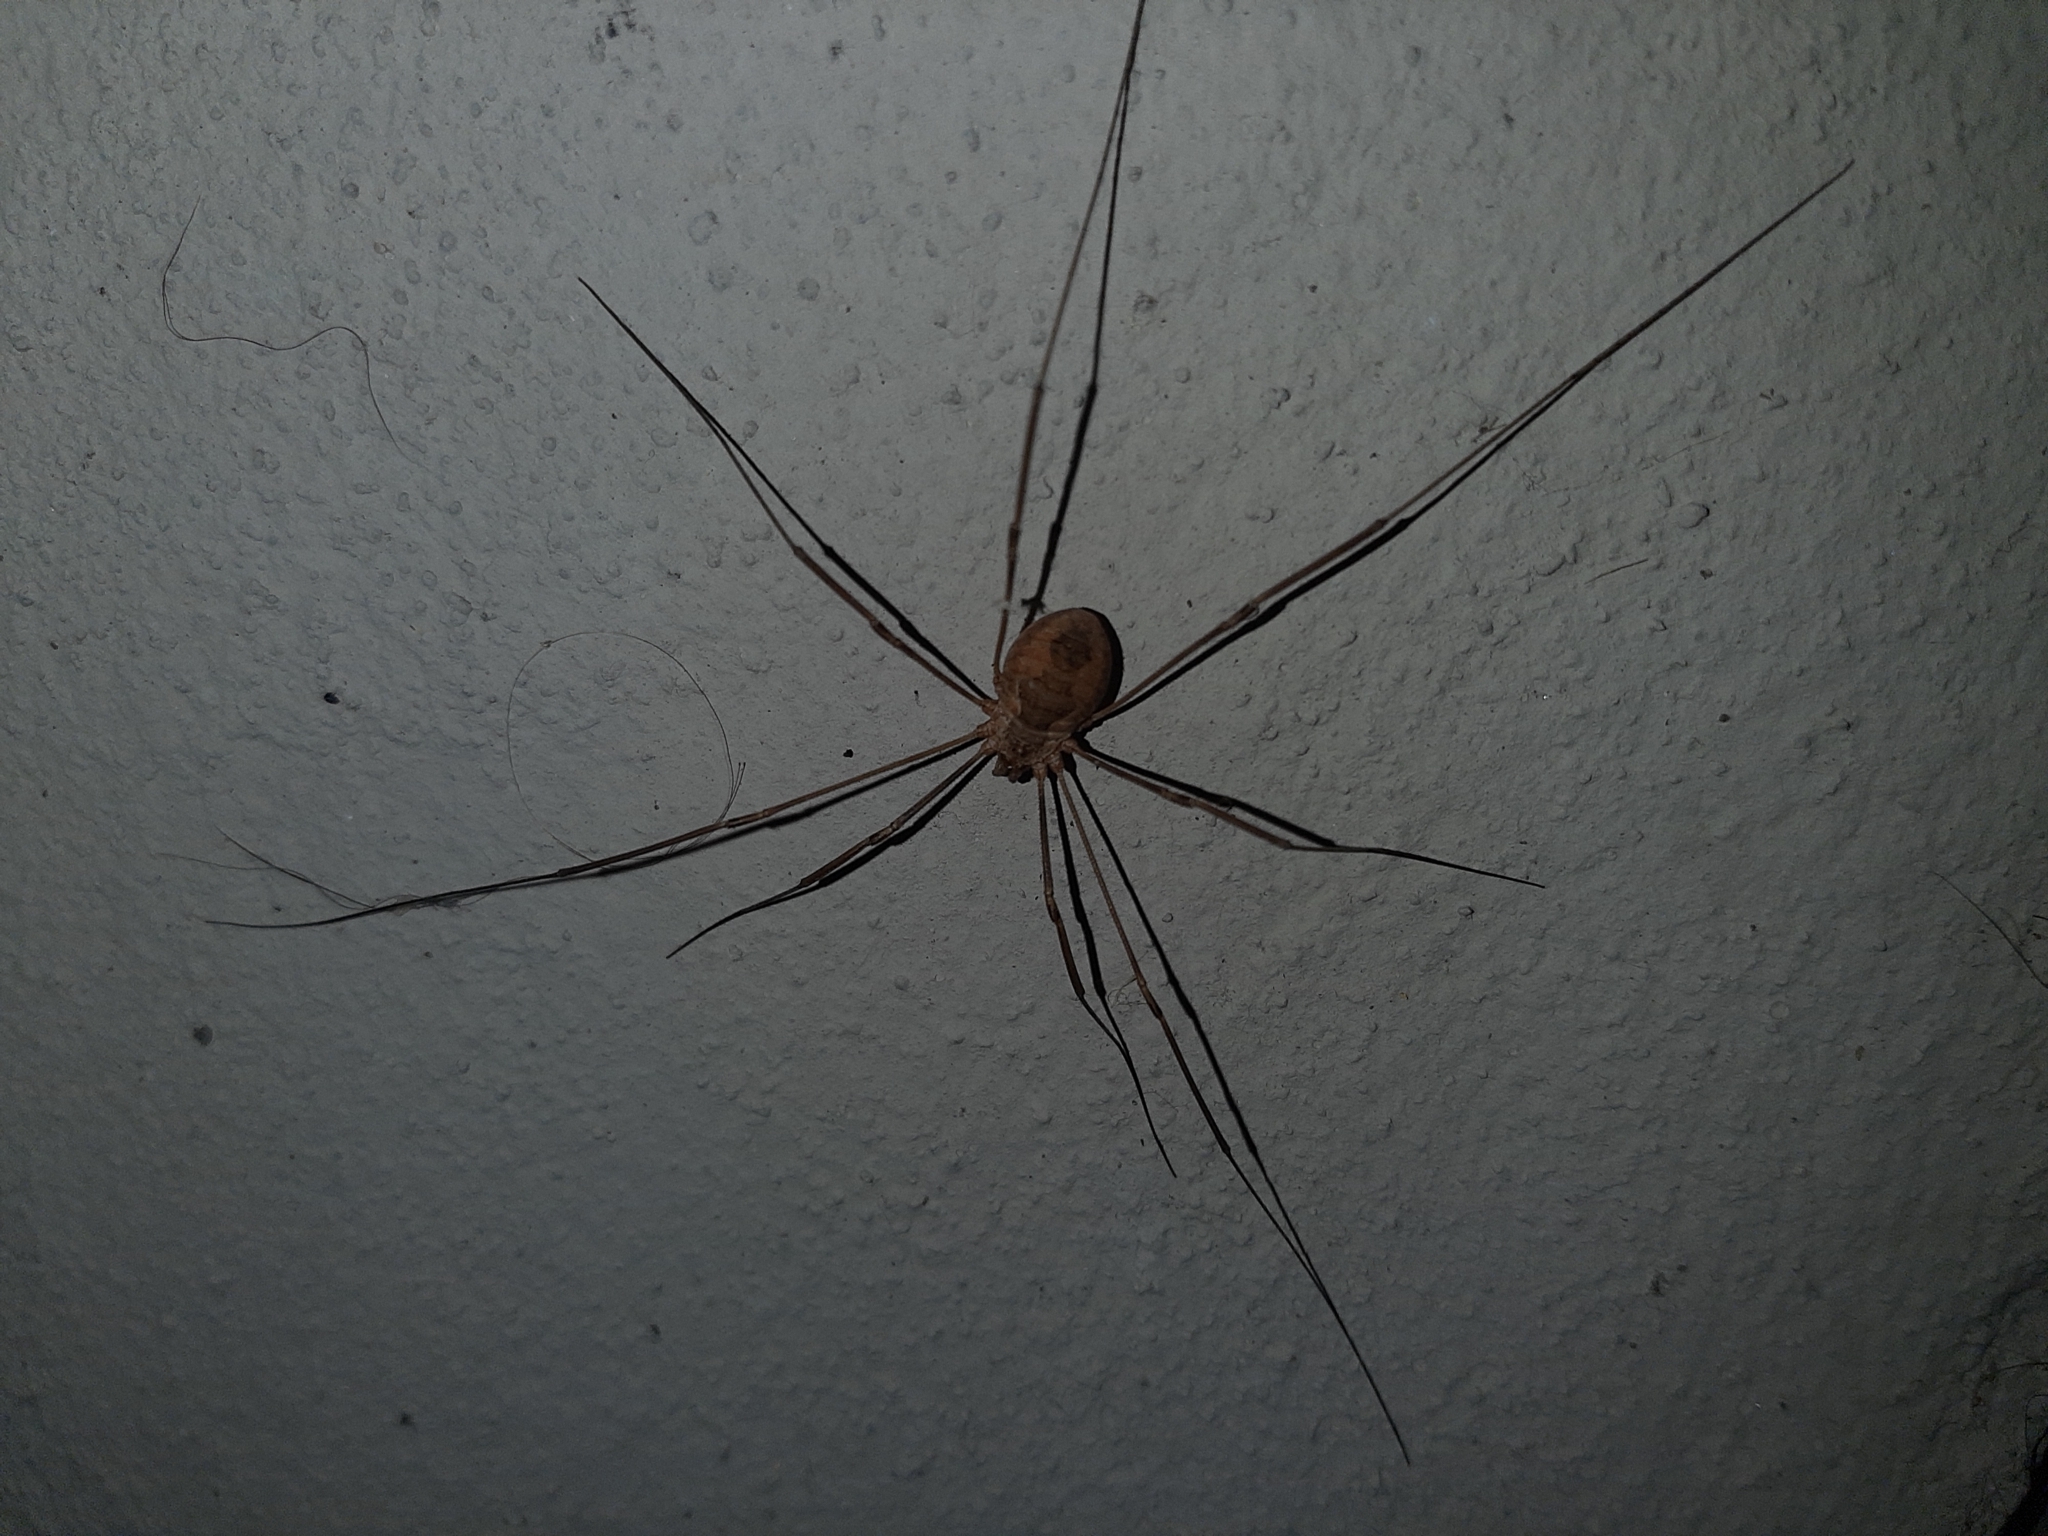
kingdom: Animalia
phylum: Arthropoda
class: Arachnida
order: Opiliones
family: Phalangiidae
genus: Phalangium
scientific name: Phalangium opilio
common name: Daddy longleg
